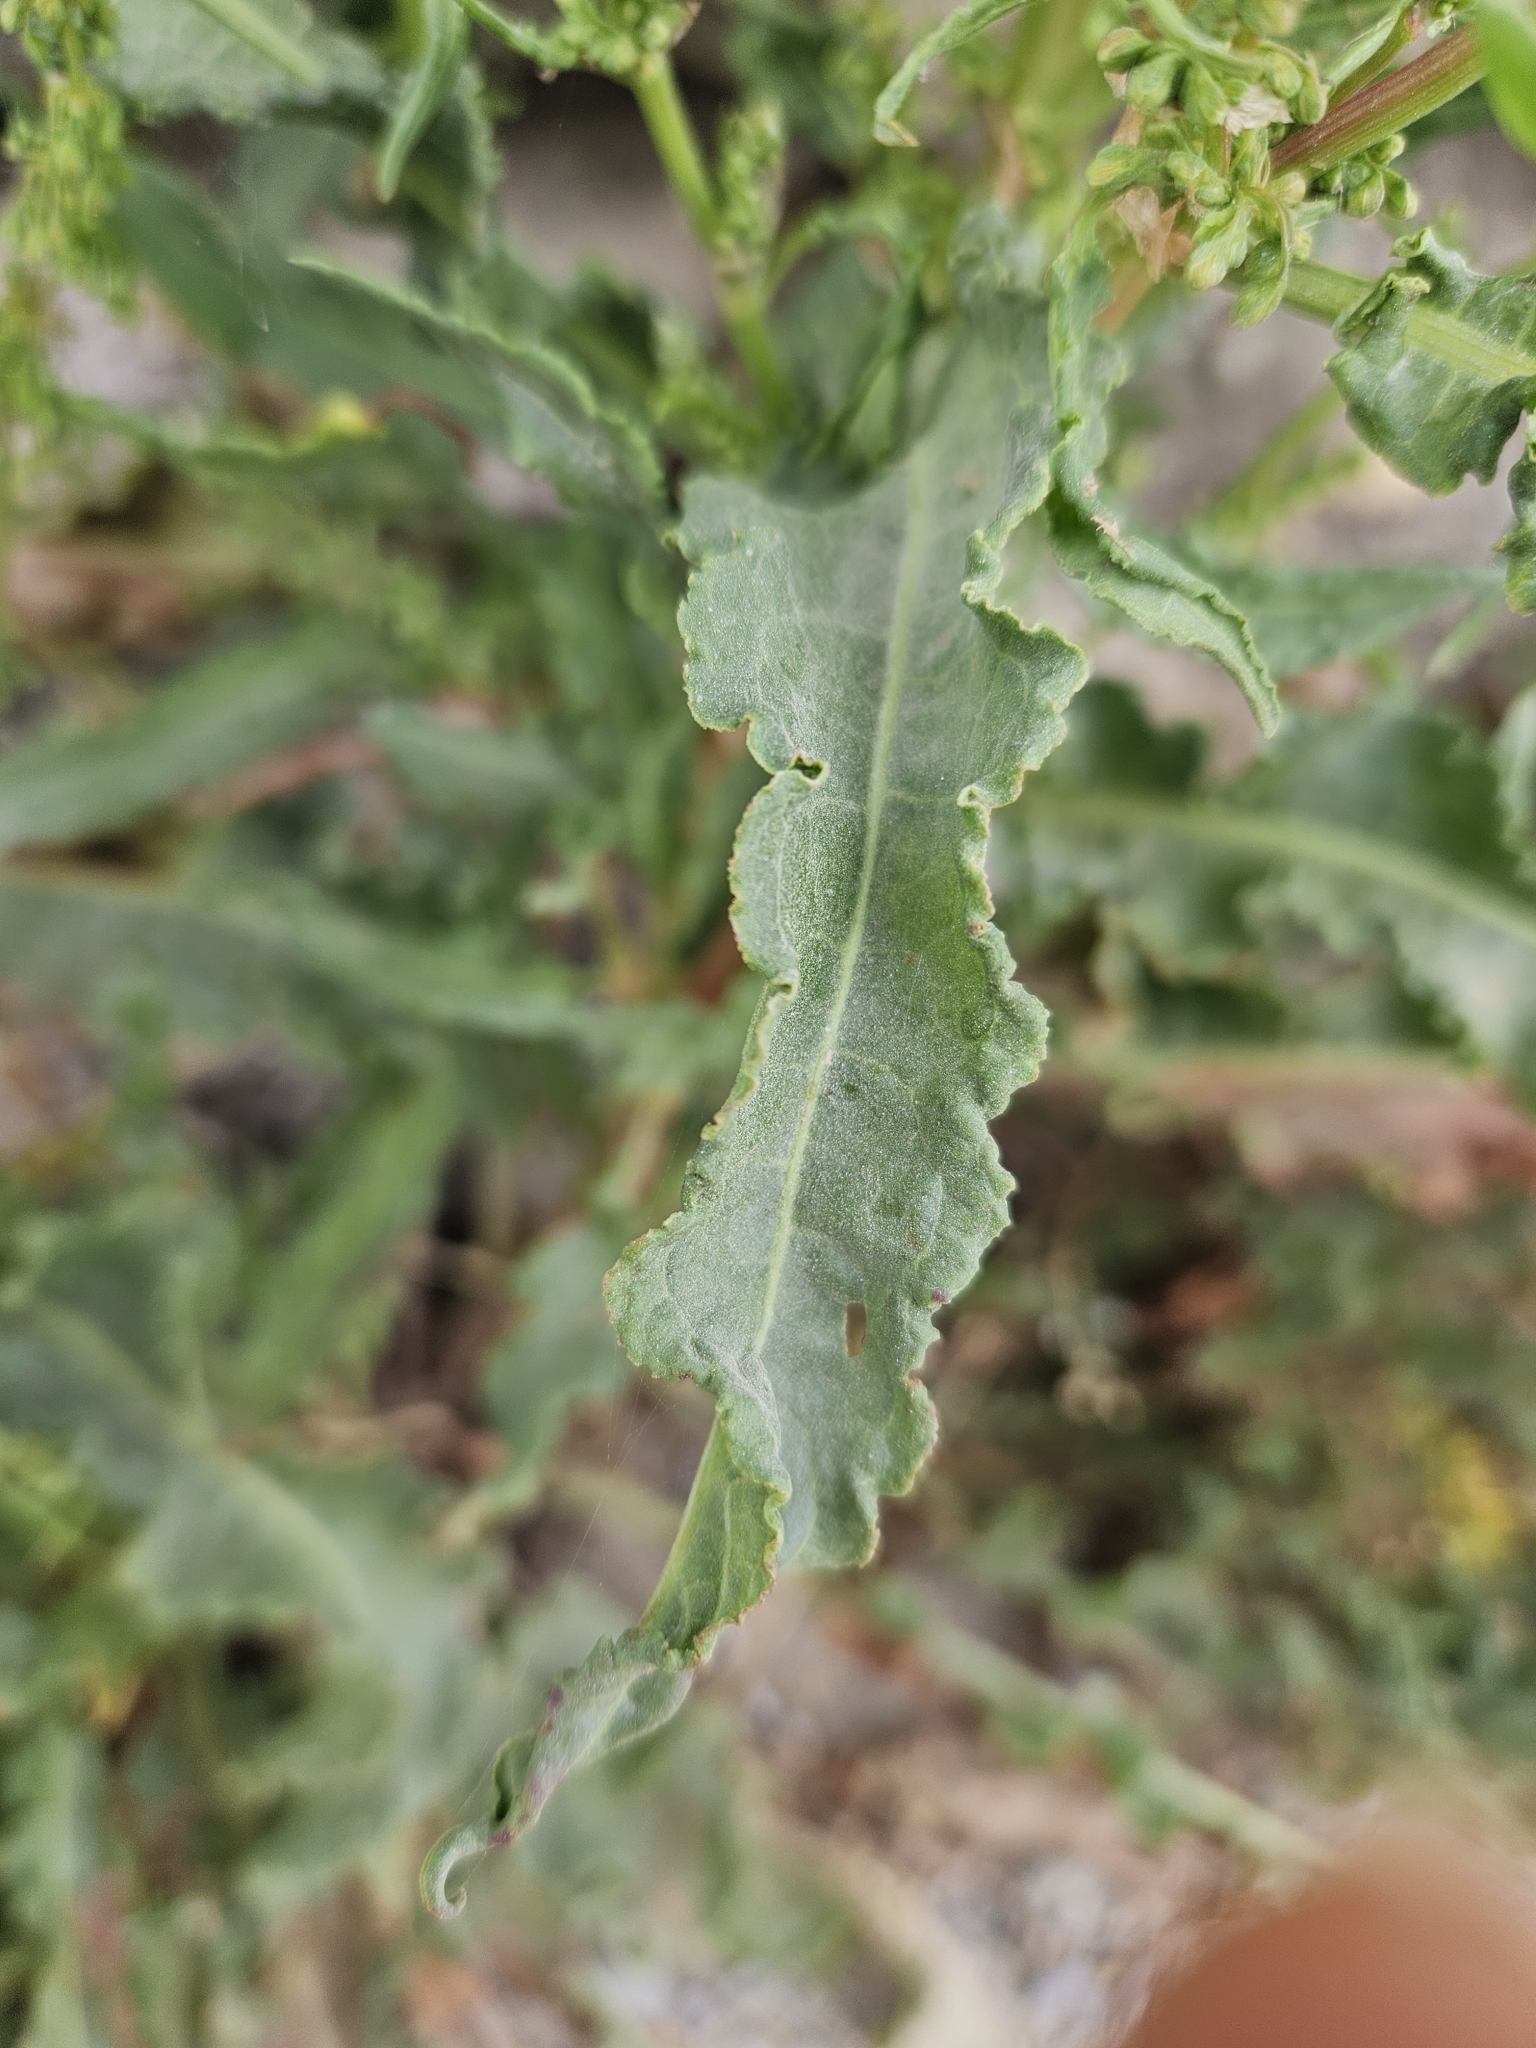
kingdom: Plantae
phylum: Tracheophyta
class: Magnoliopsida
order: Caryophyllales
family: Polygonaceae
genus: Rumex
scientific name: Rumex crispus
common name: Curled dock
